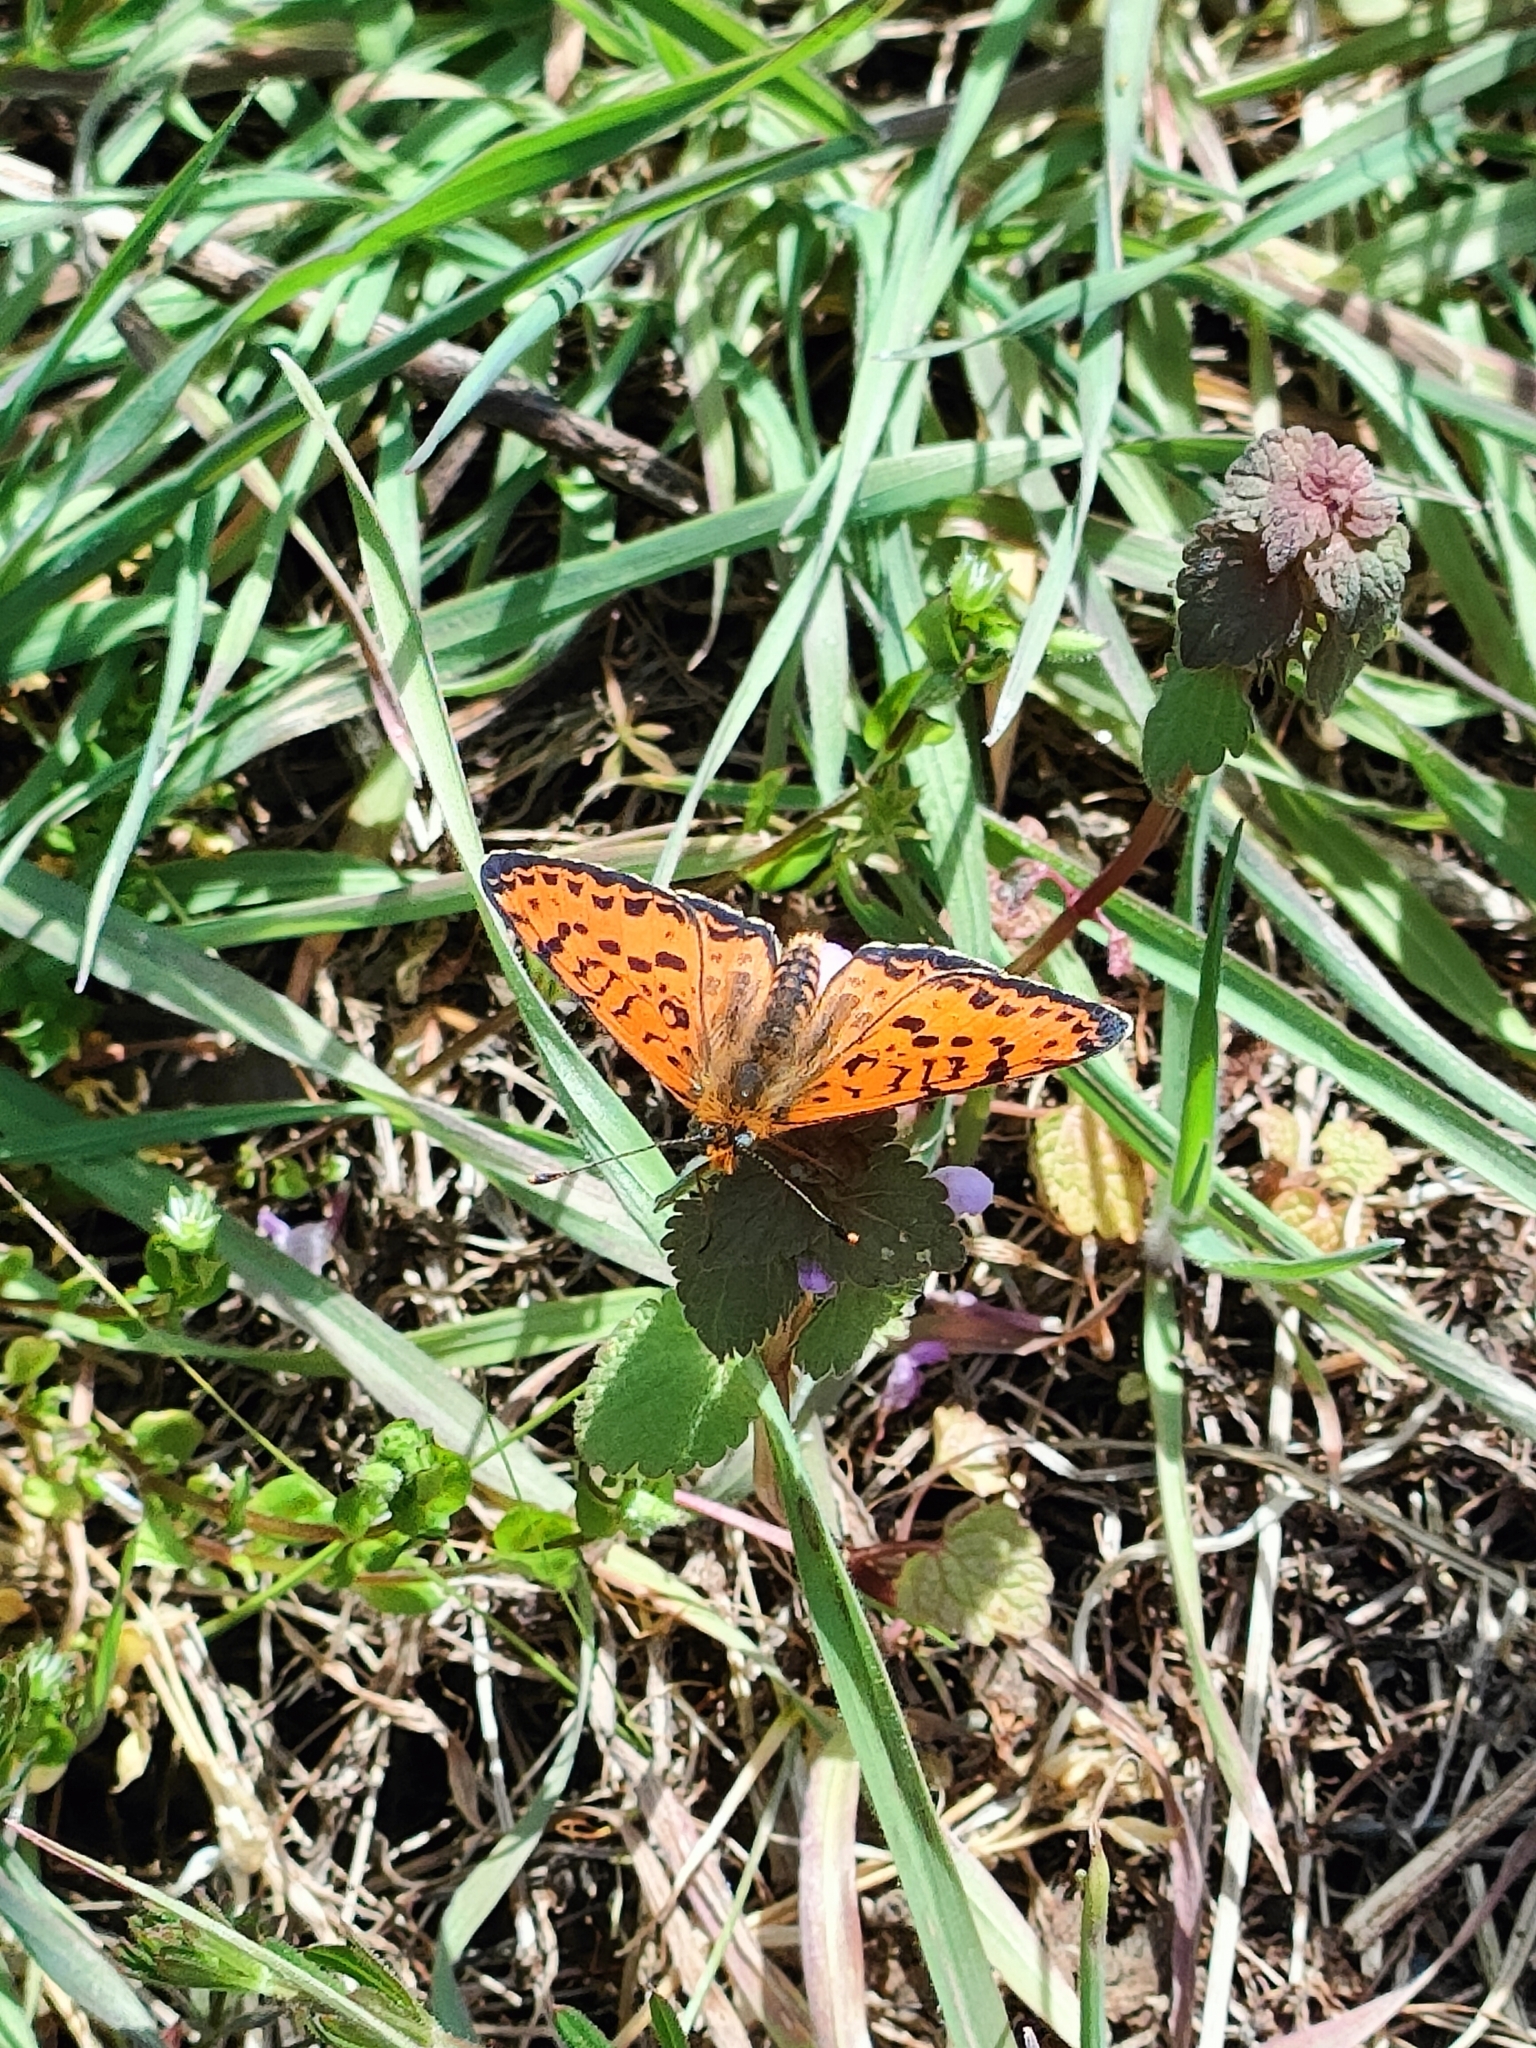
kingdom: Animalia
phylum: Arthropoda
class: Insecta
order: Lepidoptera
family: Nymphalidae
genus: Melitaea
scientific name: Melitaea didyma
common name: Spotted fritillary
